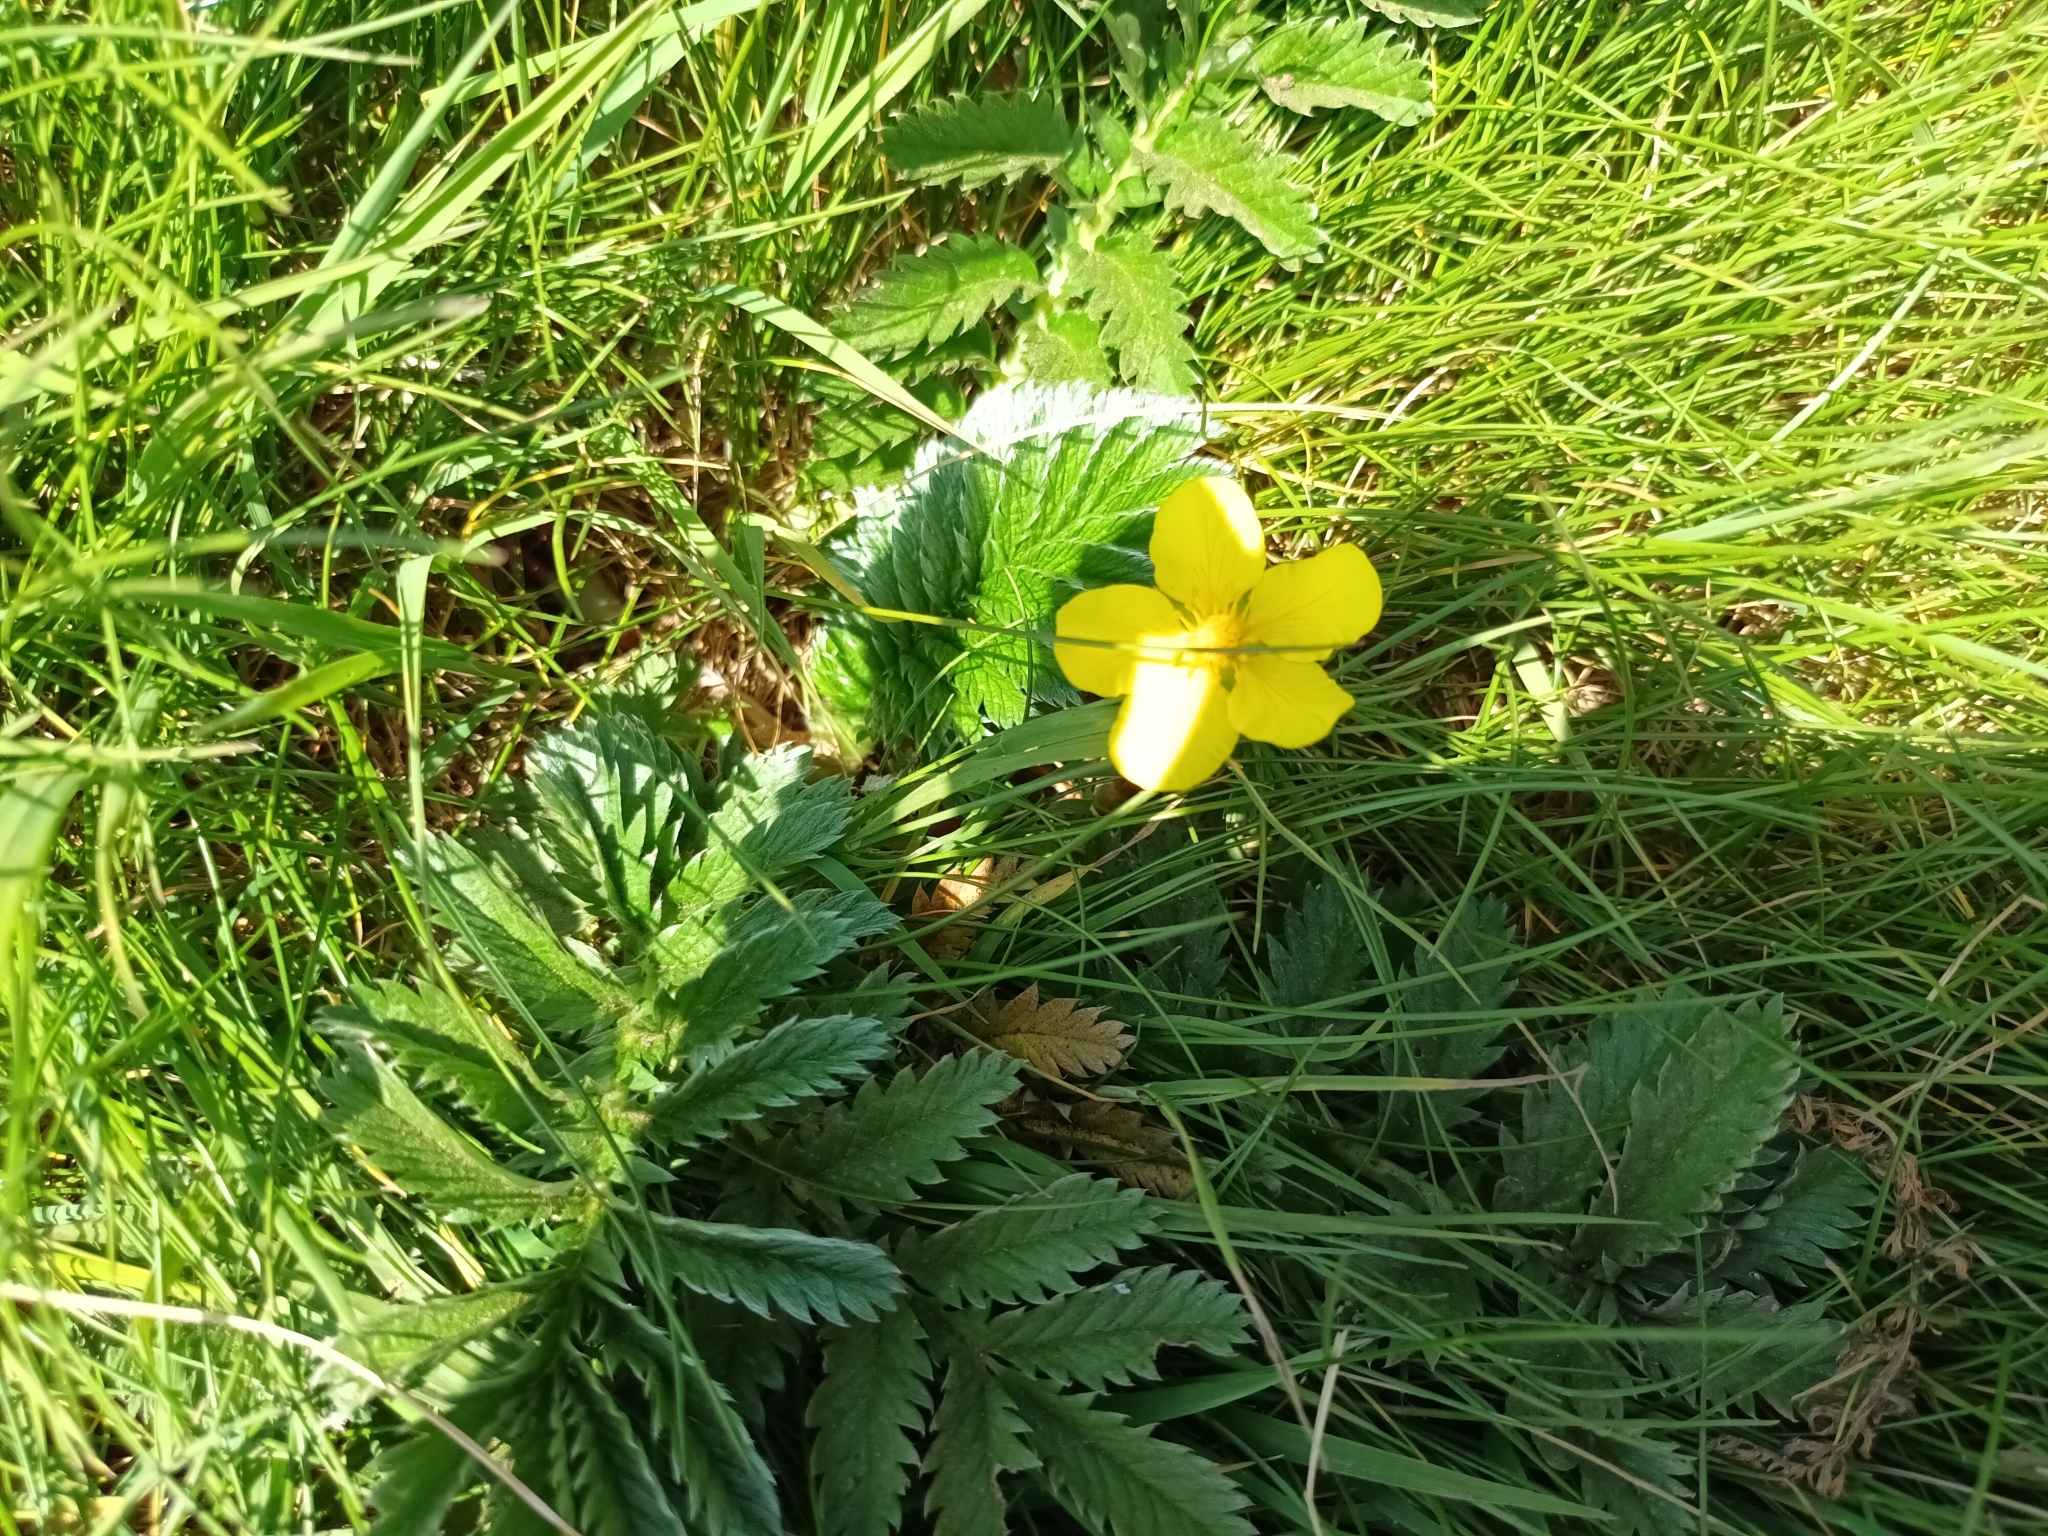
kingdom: Plantae
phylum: Tracheophyta
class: Magnoliopsida
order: Rosales
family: Rosaceae
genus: Argentina
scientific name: Argentina anserina
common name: Common silverweed
